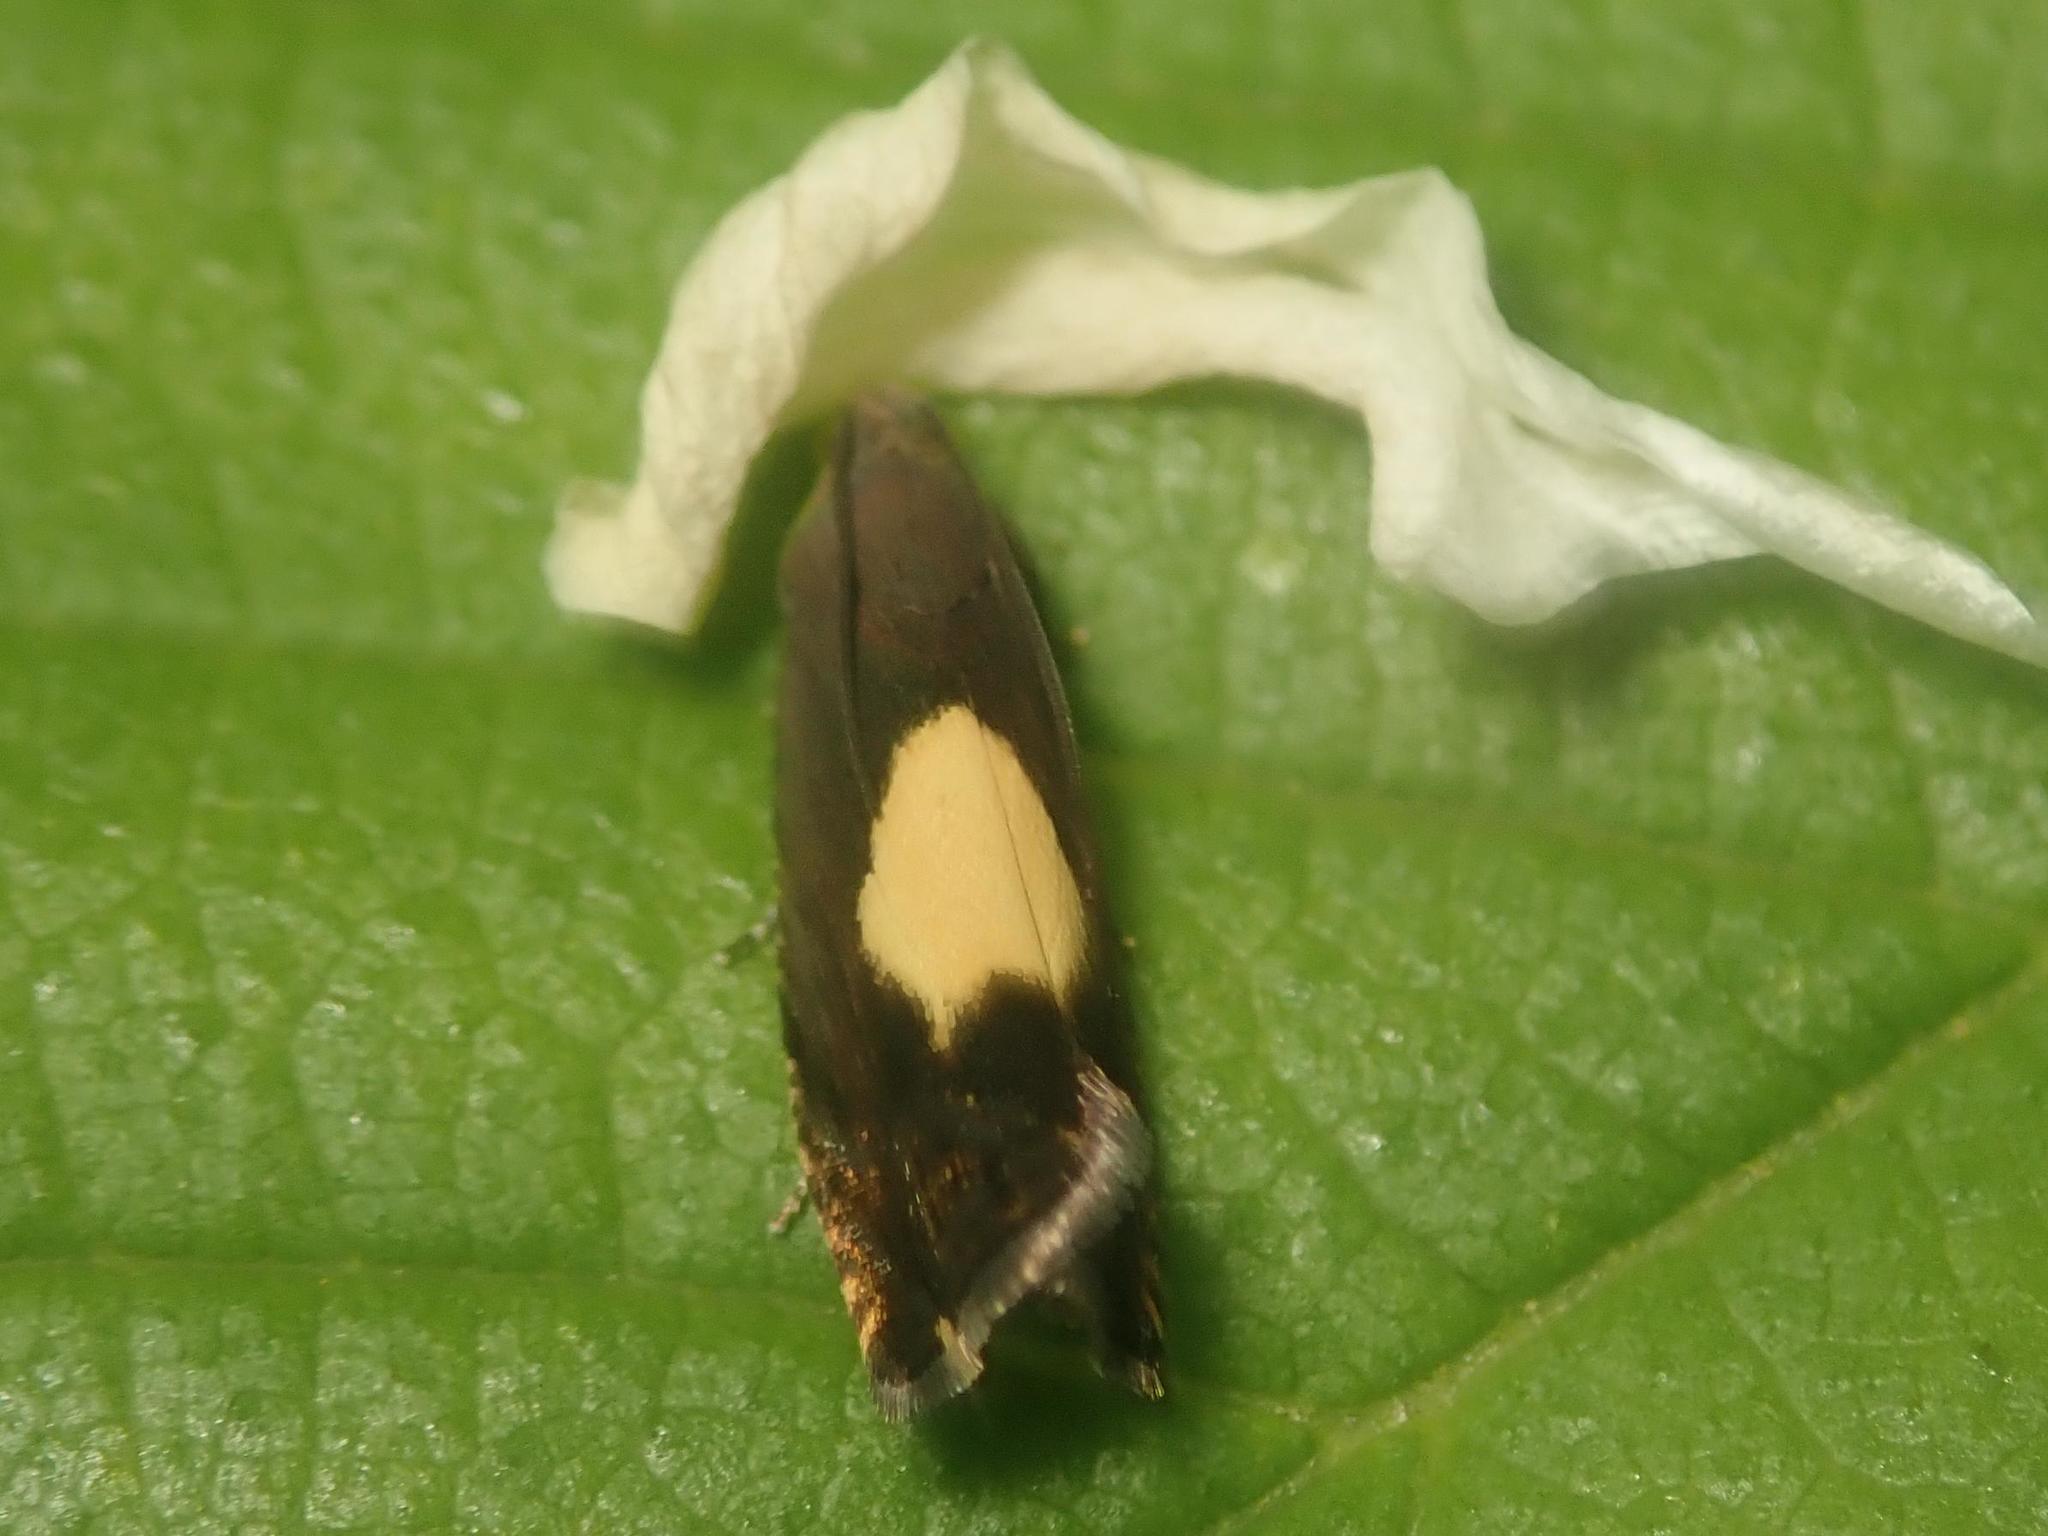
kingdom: Animalia
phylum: Arthropoda
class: Insecta
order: Lepidoptera
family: Tortricidae
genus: Pammene
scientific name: Pammene regiana
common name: Regal piercer
